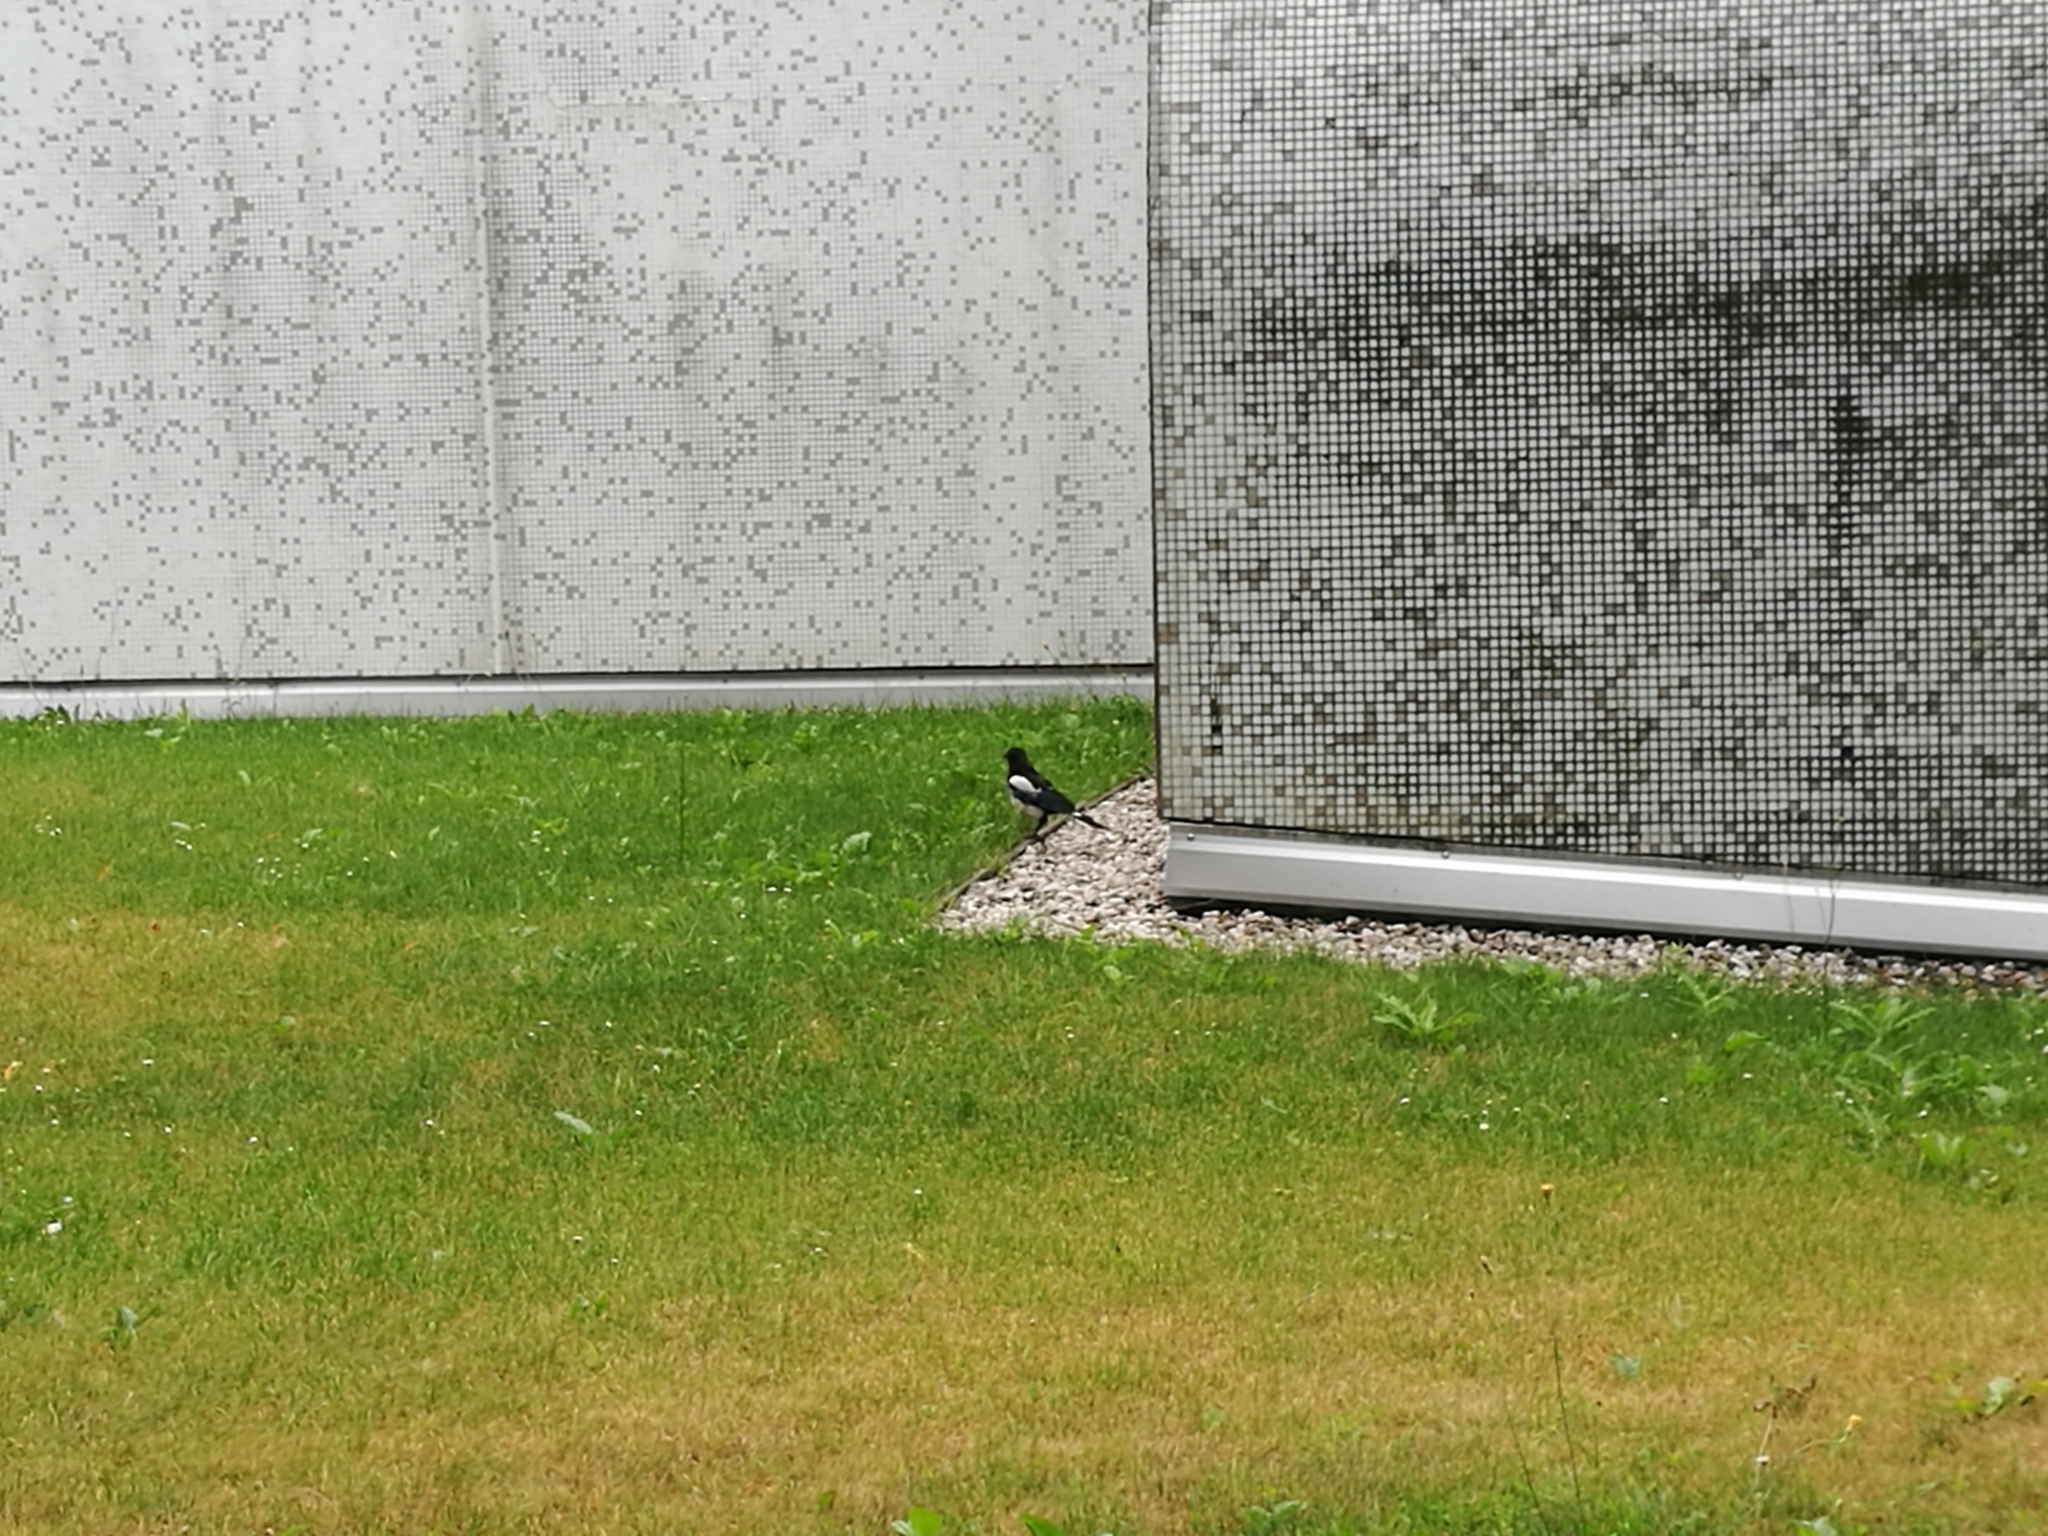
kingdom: Animalia
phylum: Chordata
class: Aves
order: Passeriformes
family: Corvidae
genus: Pica
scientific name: Pica pica
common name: Eurasian magpie
